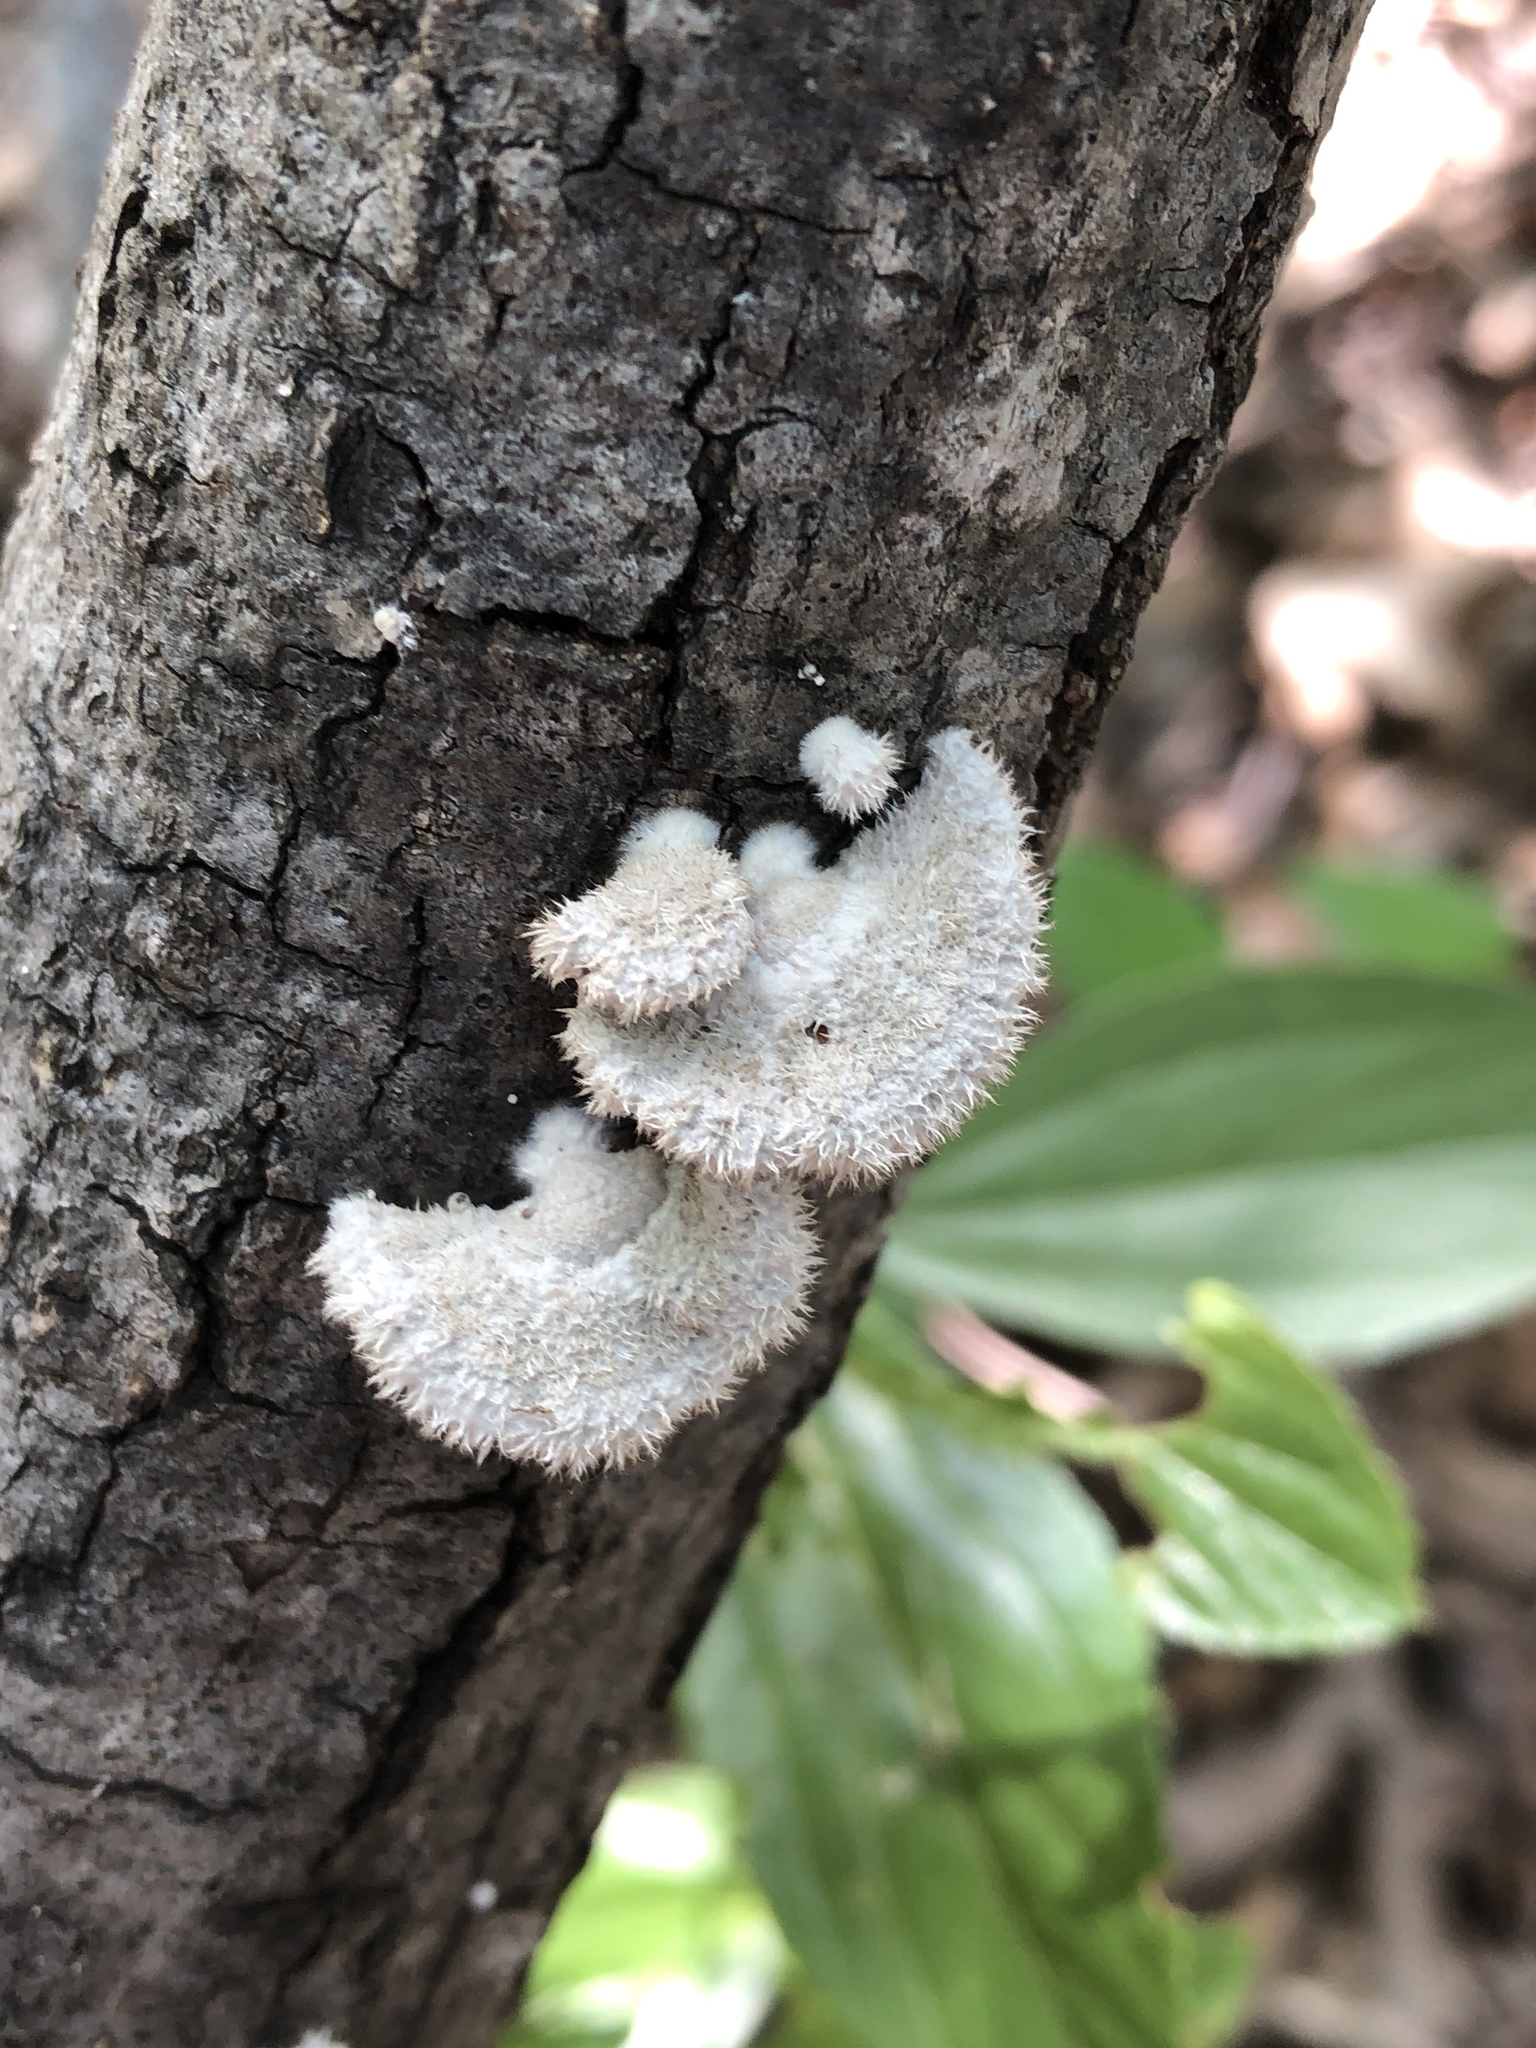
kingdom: Fungi
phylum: Basidiomycota
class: Agaricomycetes
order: Agaricales
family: Schizophyllaceae
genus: Schizophyllum
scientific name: Schizophyllum commune
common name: Common porecrust
